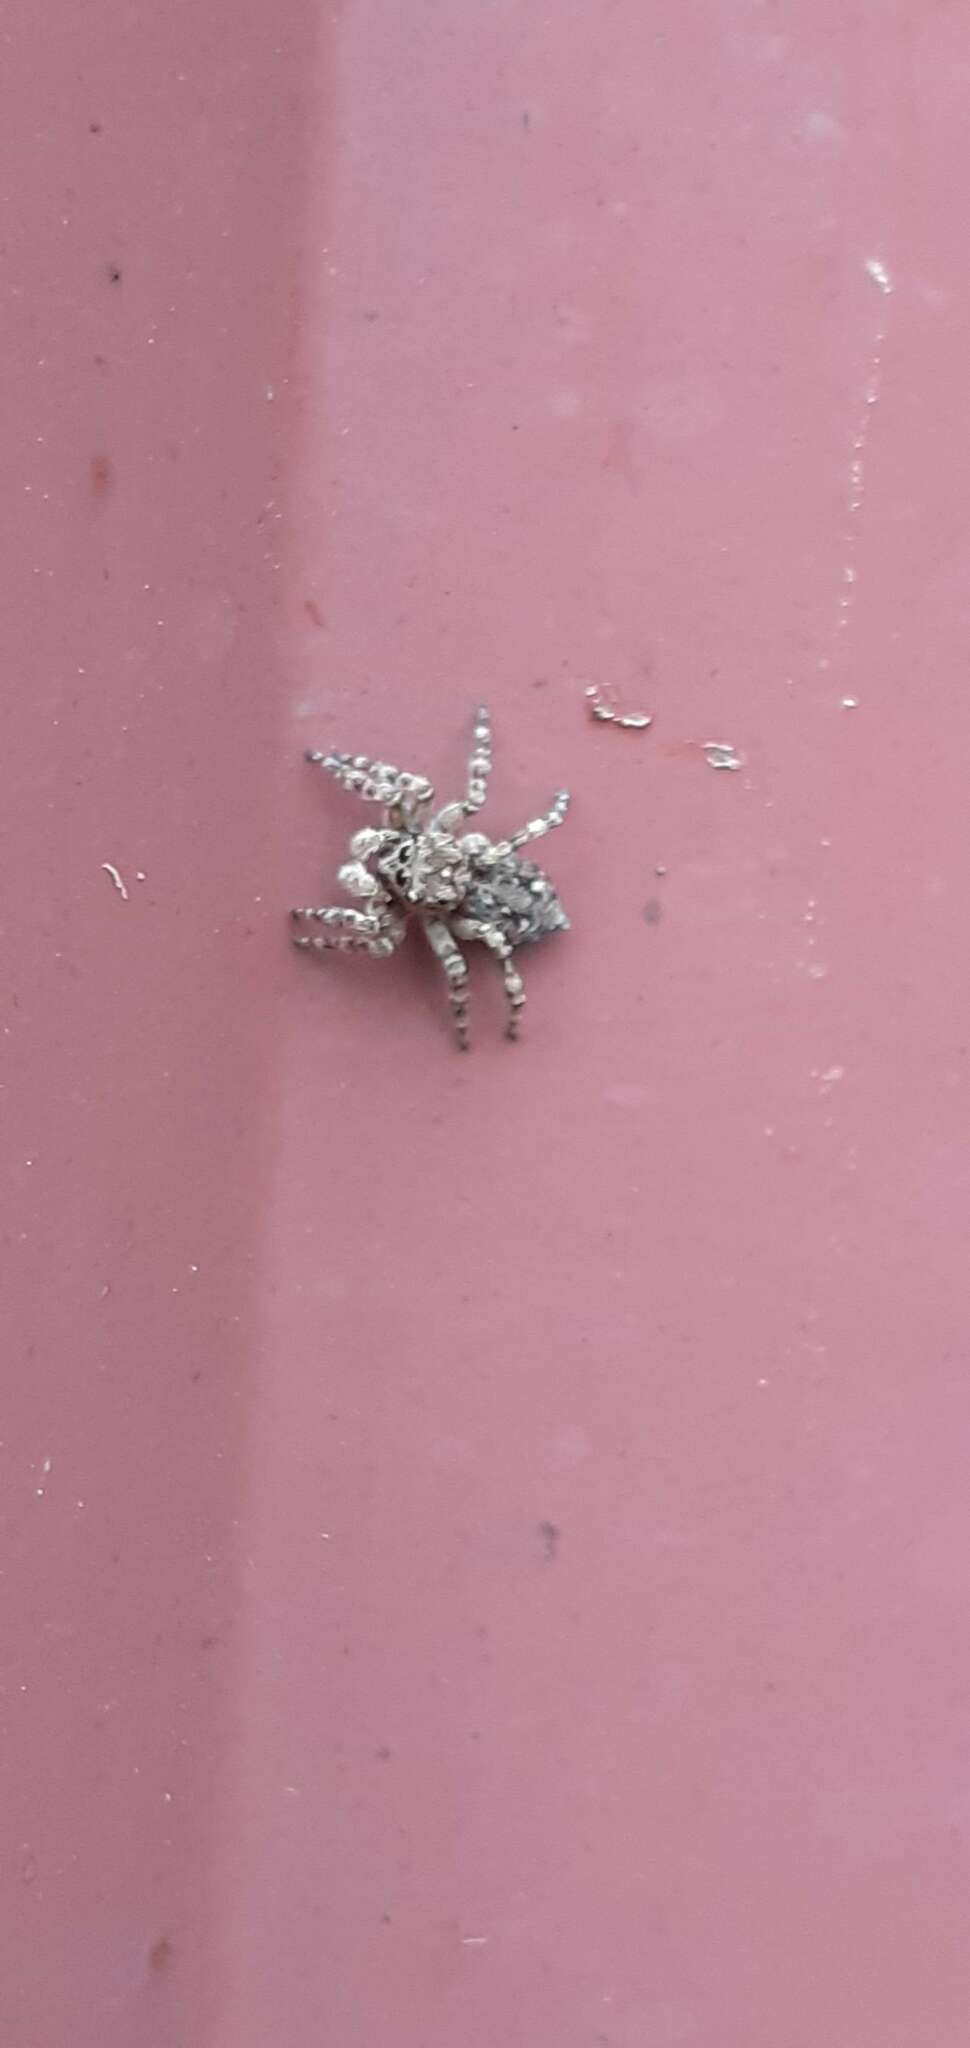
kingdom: Animalia
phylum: Arthropoda
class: Arachnida
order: Araneae
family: Salticidae
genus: Attulus
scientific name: Attulus pubescens
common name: Jumping spider
